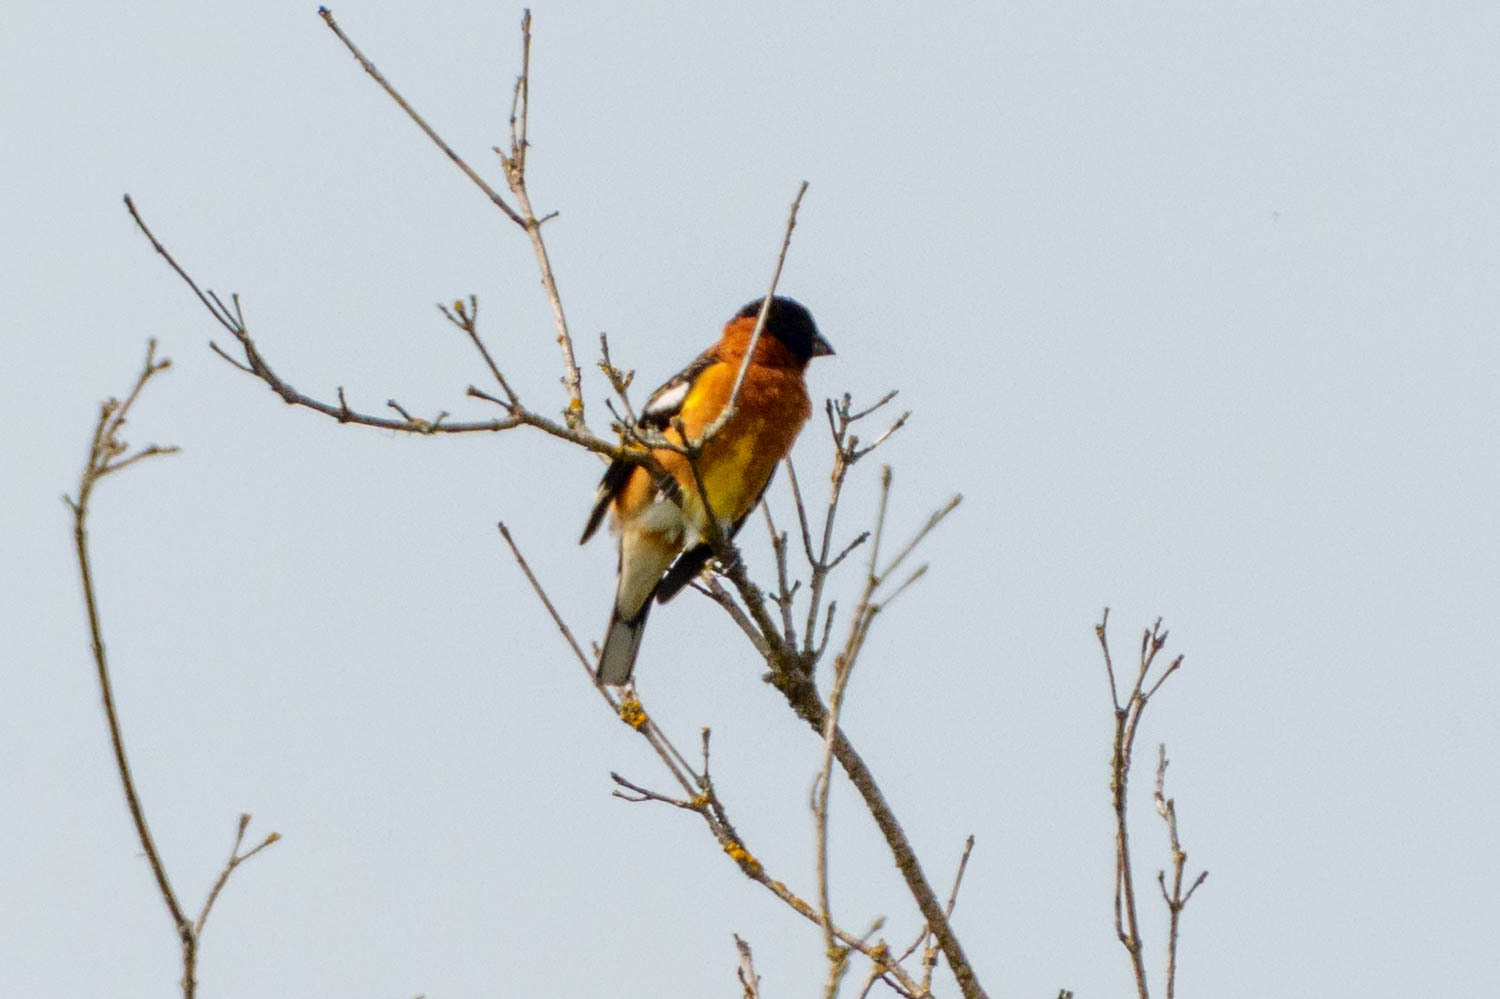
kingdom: Animalia
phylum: Chordata
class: Aves
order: Passeriformes
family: Cardinalidae
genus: Pheucticus
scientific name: Pheucticus melanocephalus
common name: Black-headed grosbeak
